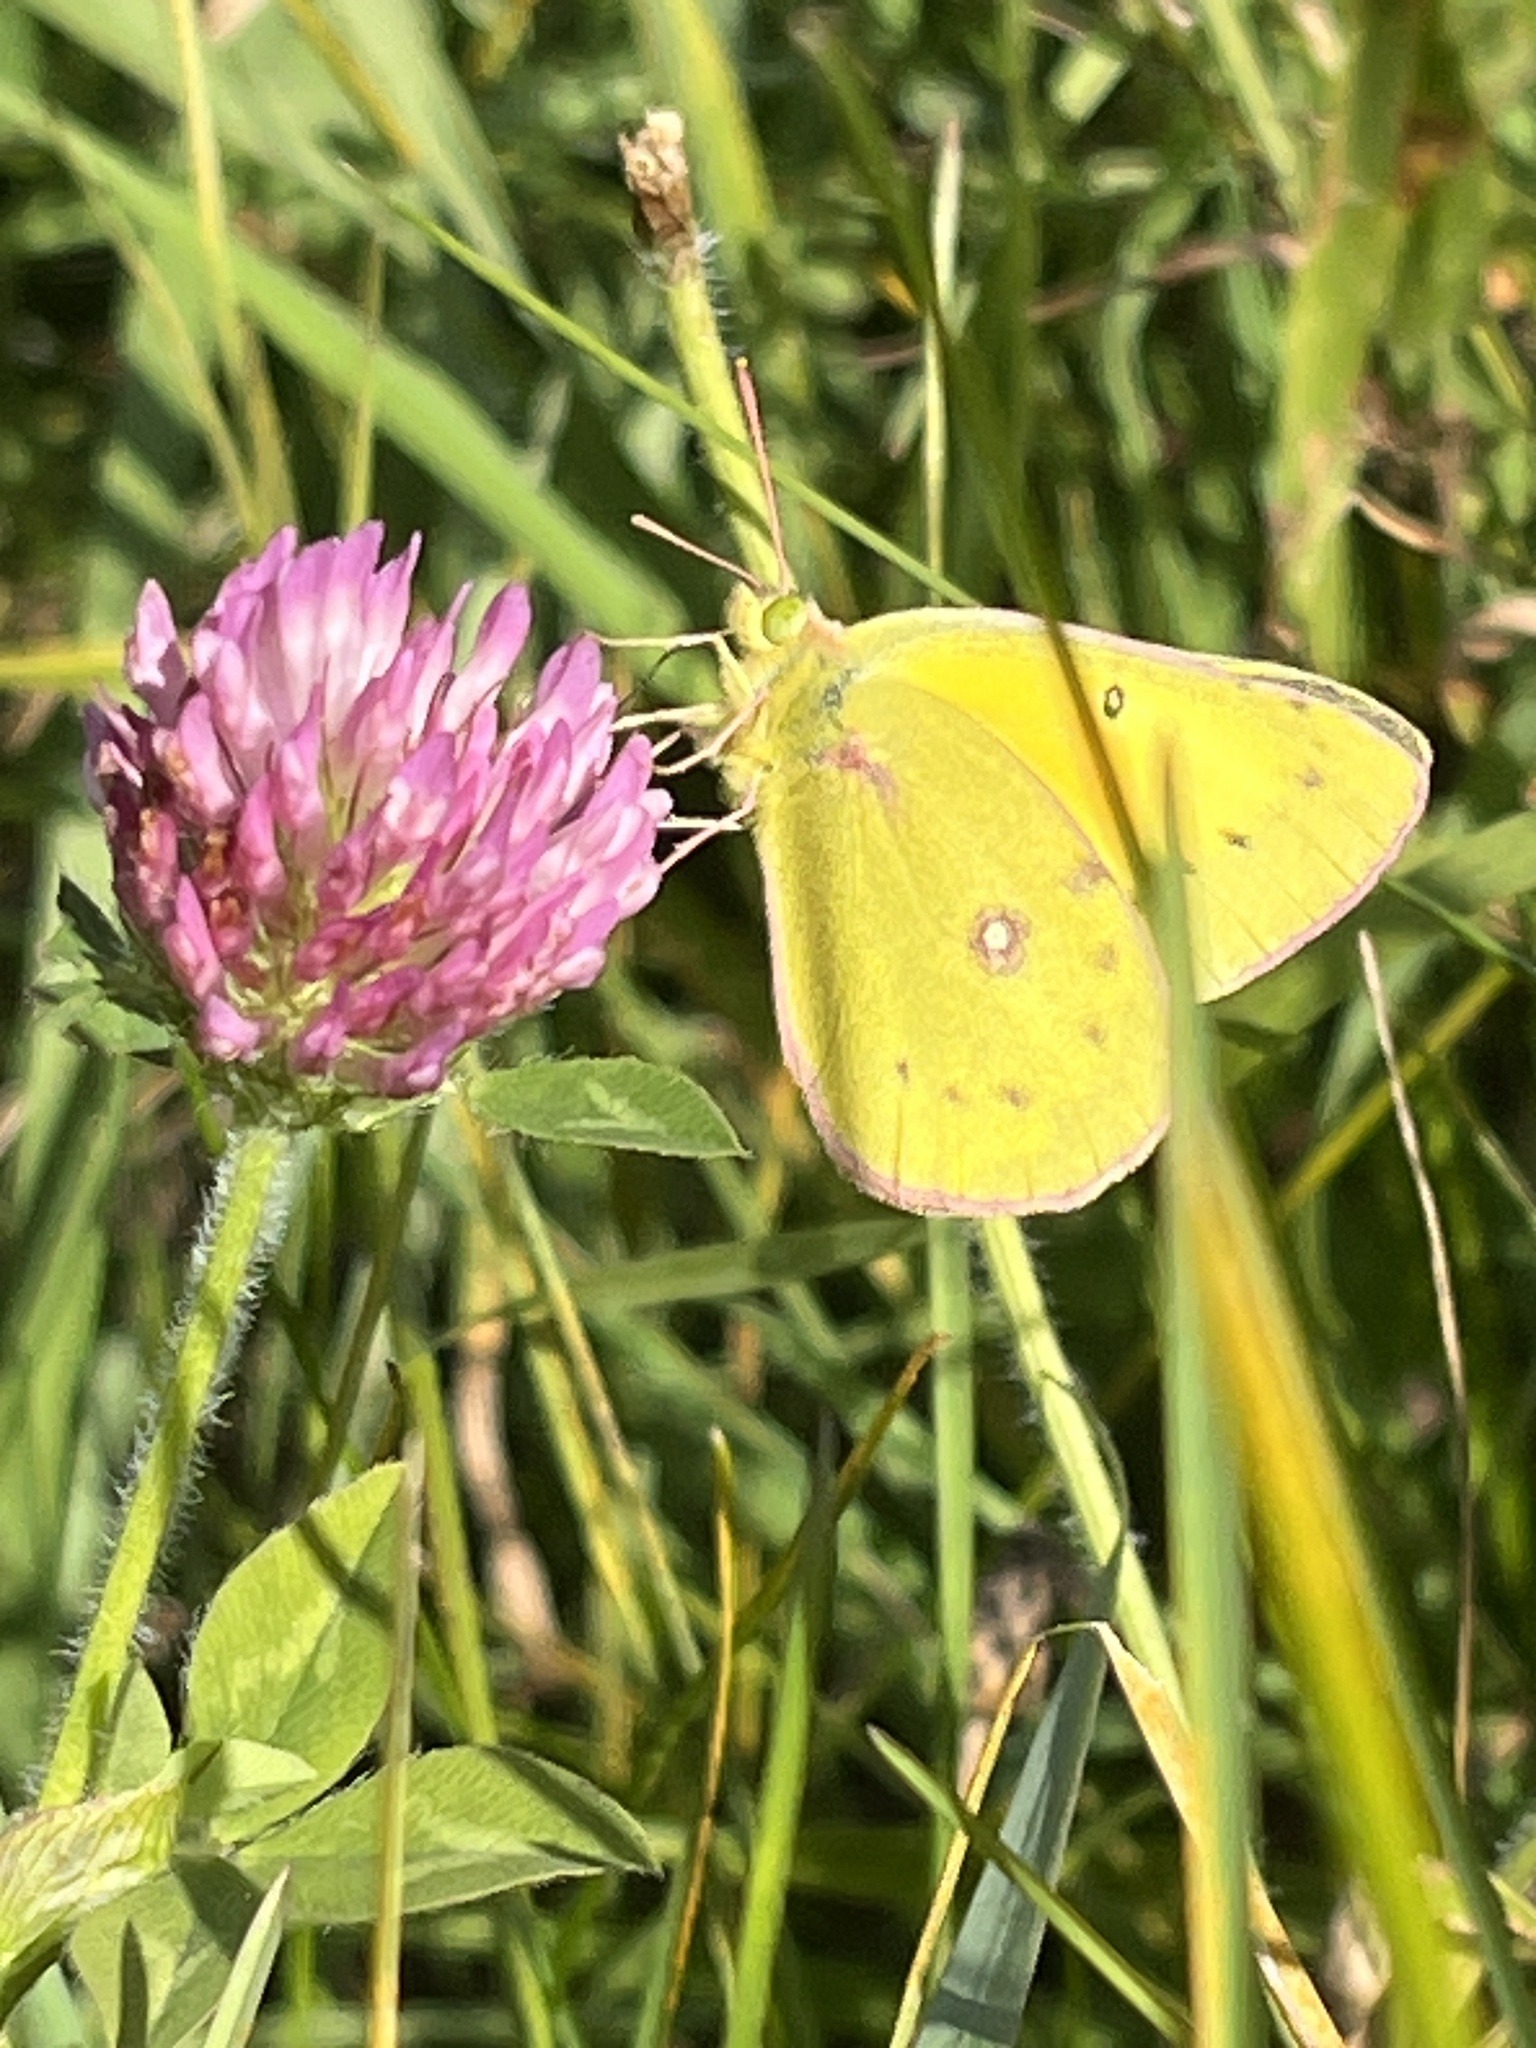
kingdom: Animalia
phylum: Arthropoda
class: Insecta
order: Lepidoptera
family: Pieridae
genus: Colias
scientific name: Colias eurytheme
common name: Alfalfa butterfly
